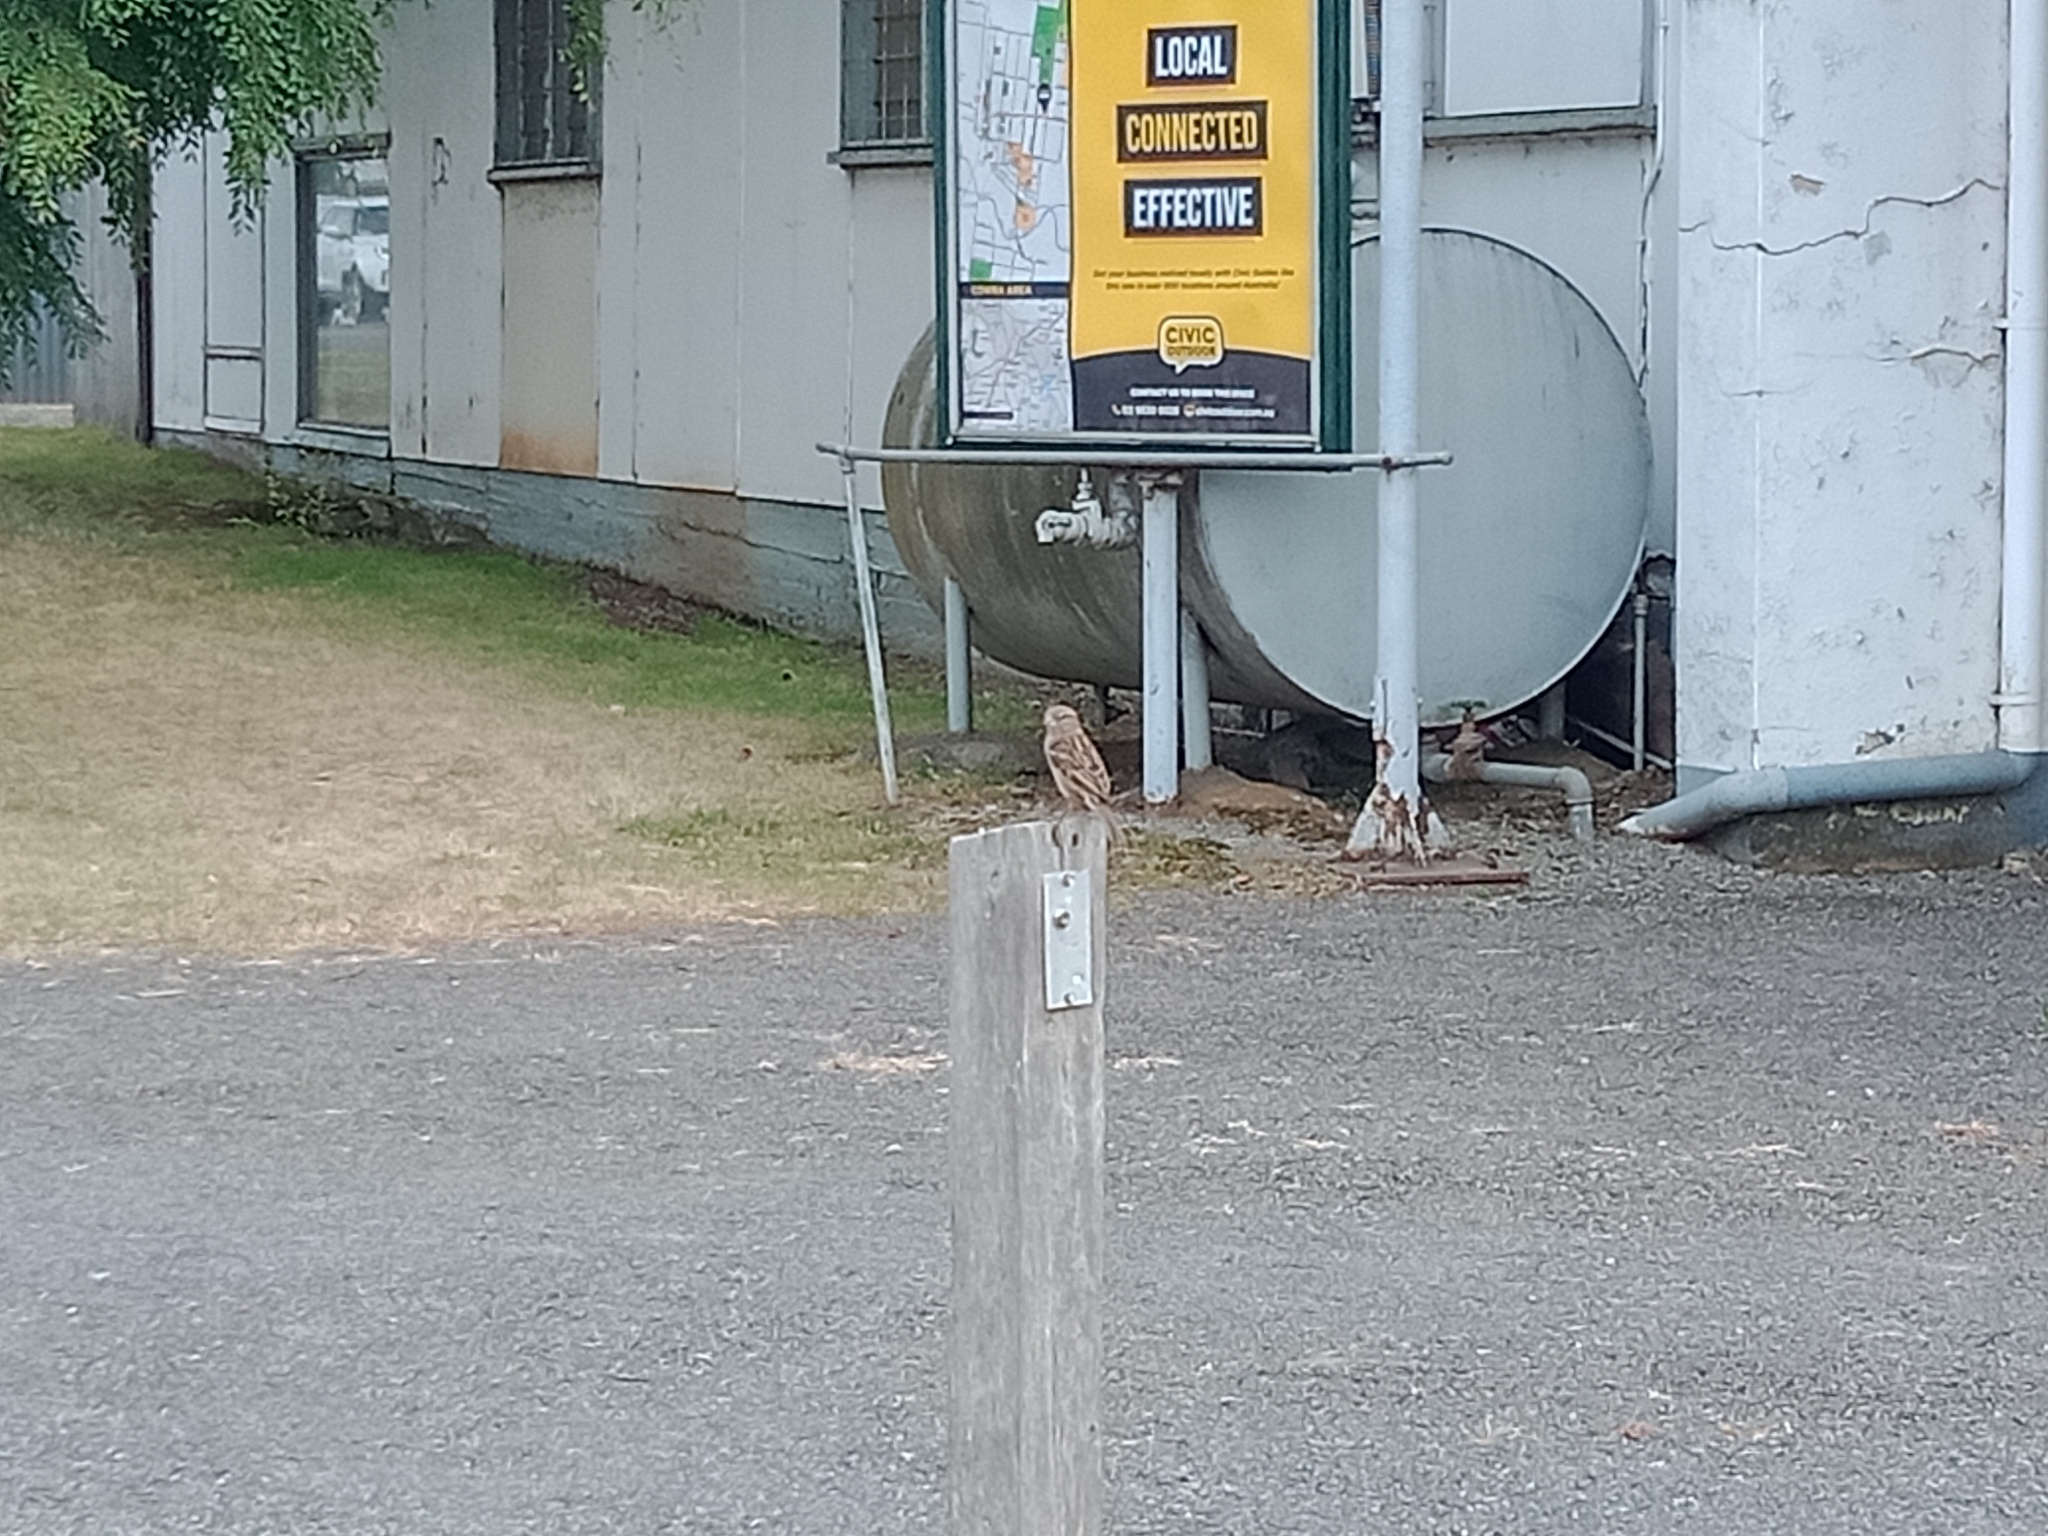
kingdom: Animalia
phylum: Chordata
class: Aves
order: Passeriformes
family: Passeridae
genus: Passer
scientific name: Passer domesticus
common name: House sparrow
